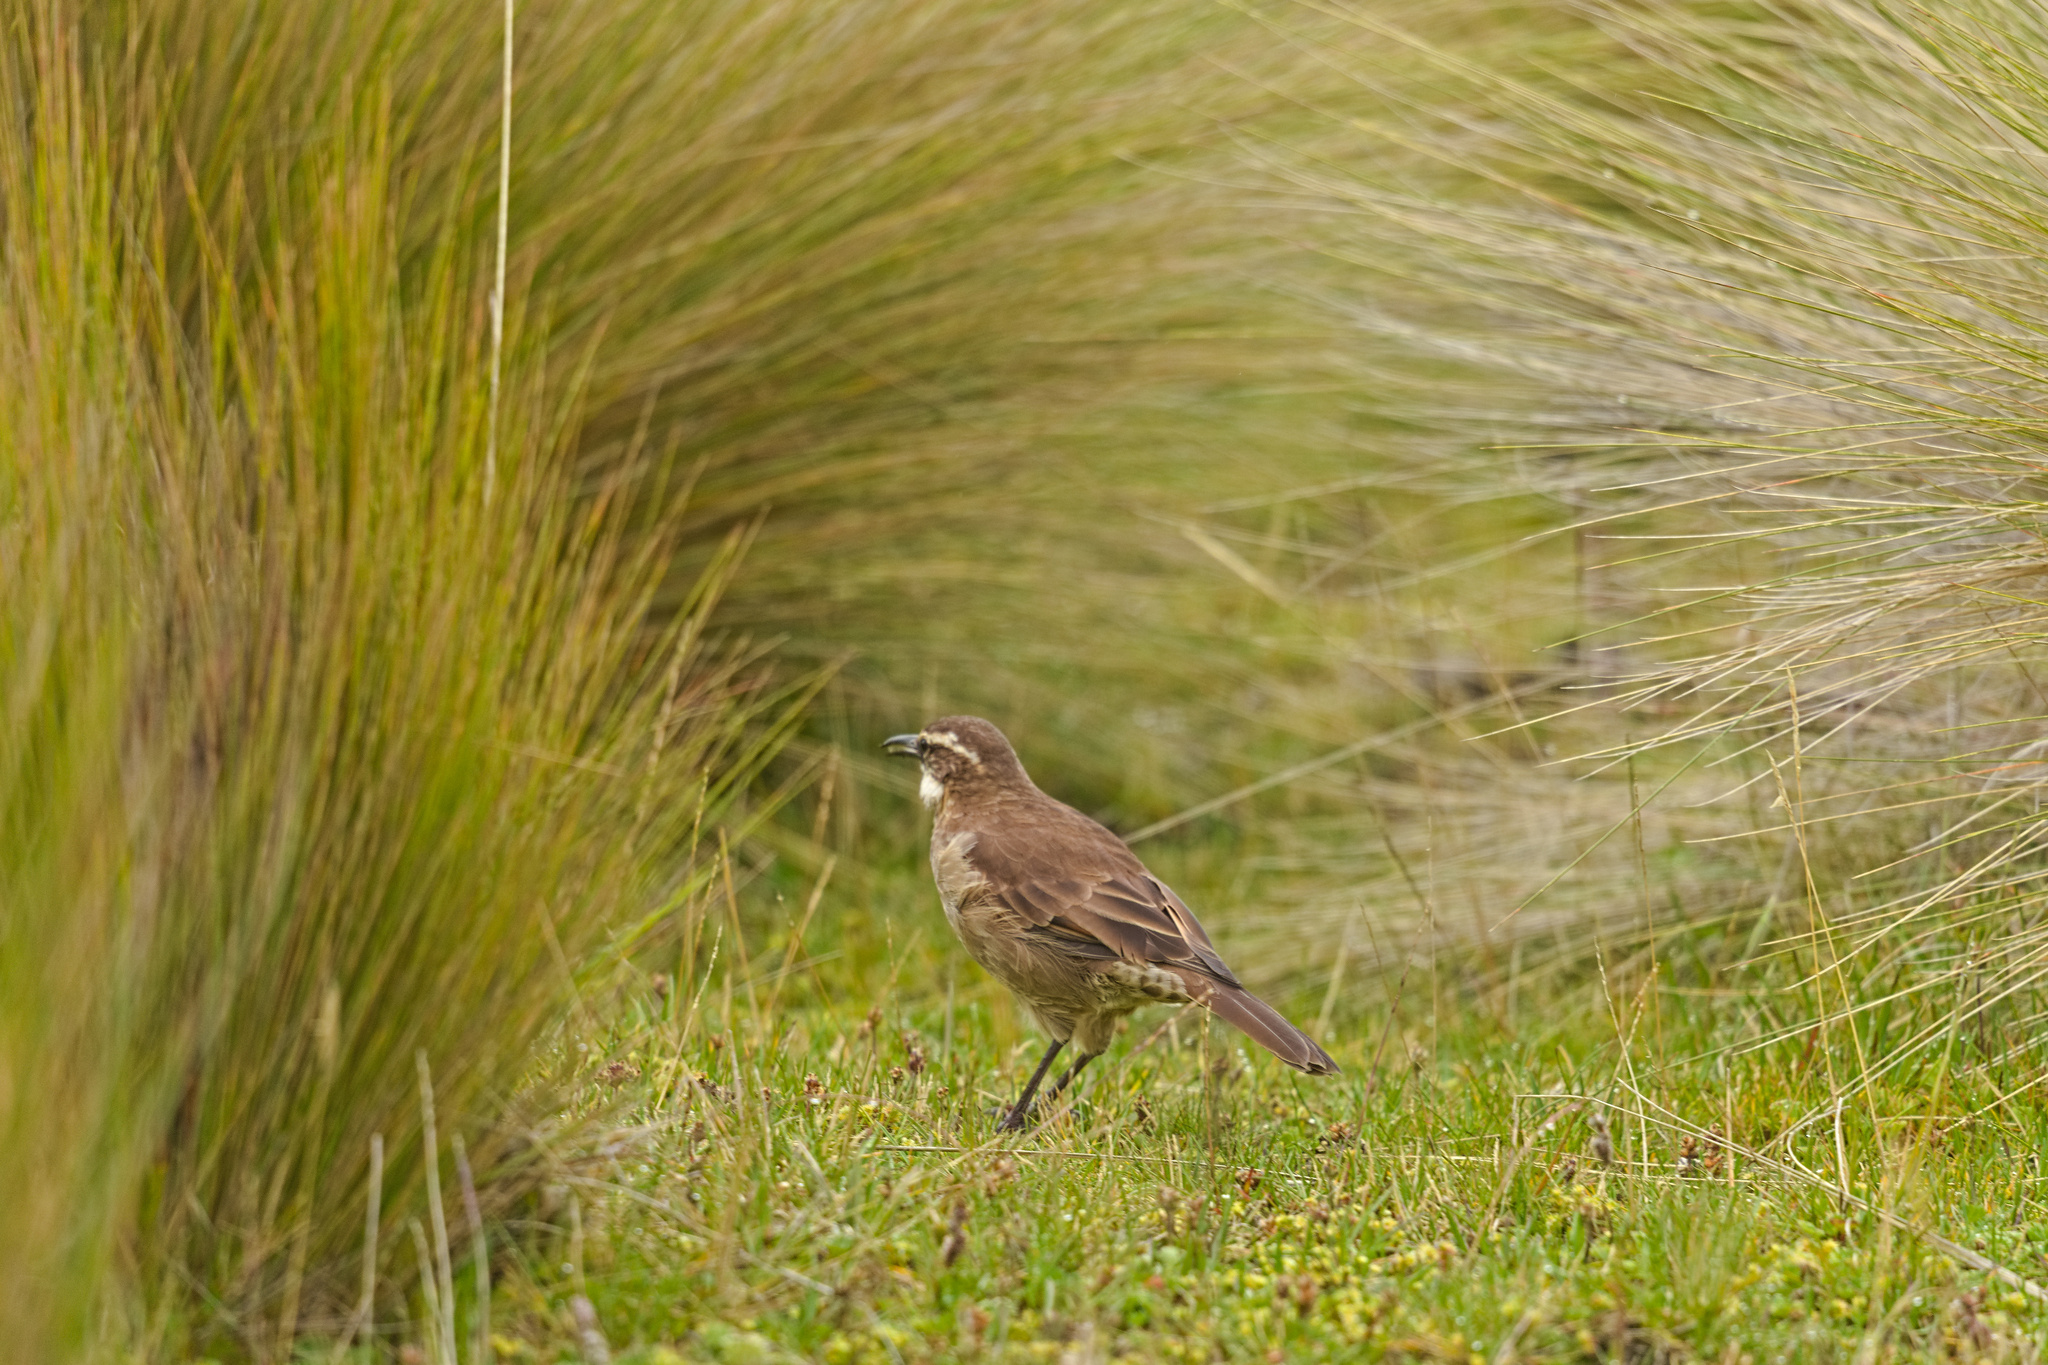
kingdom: Animalia
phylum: Chordata
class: Aves
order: Passeriformes
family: Furnariidae
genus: Cinclodes
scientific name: Cinclodes excelsior
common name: Stout-billed cinclodes
